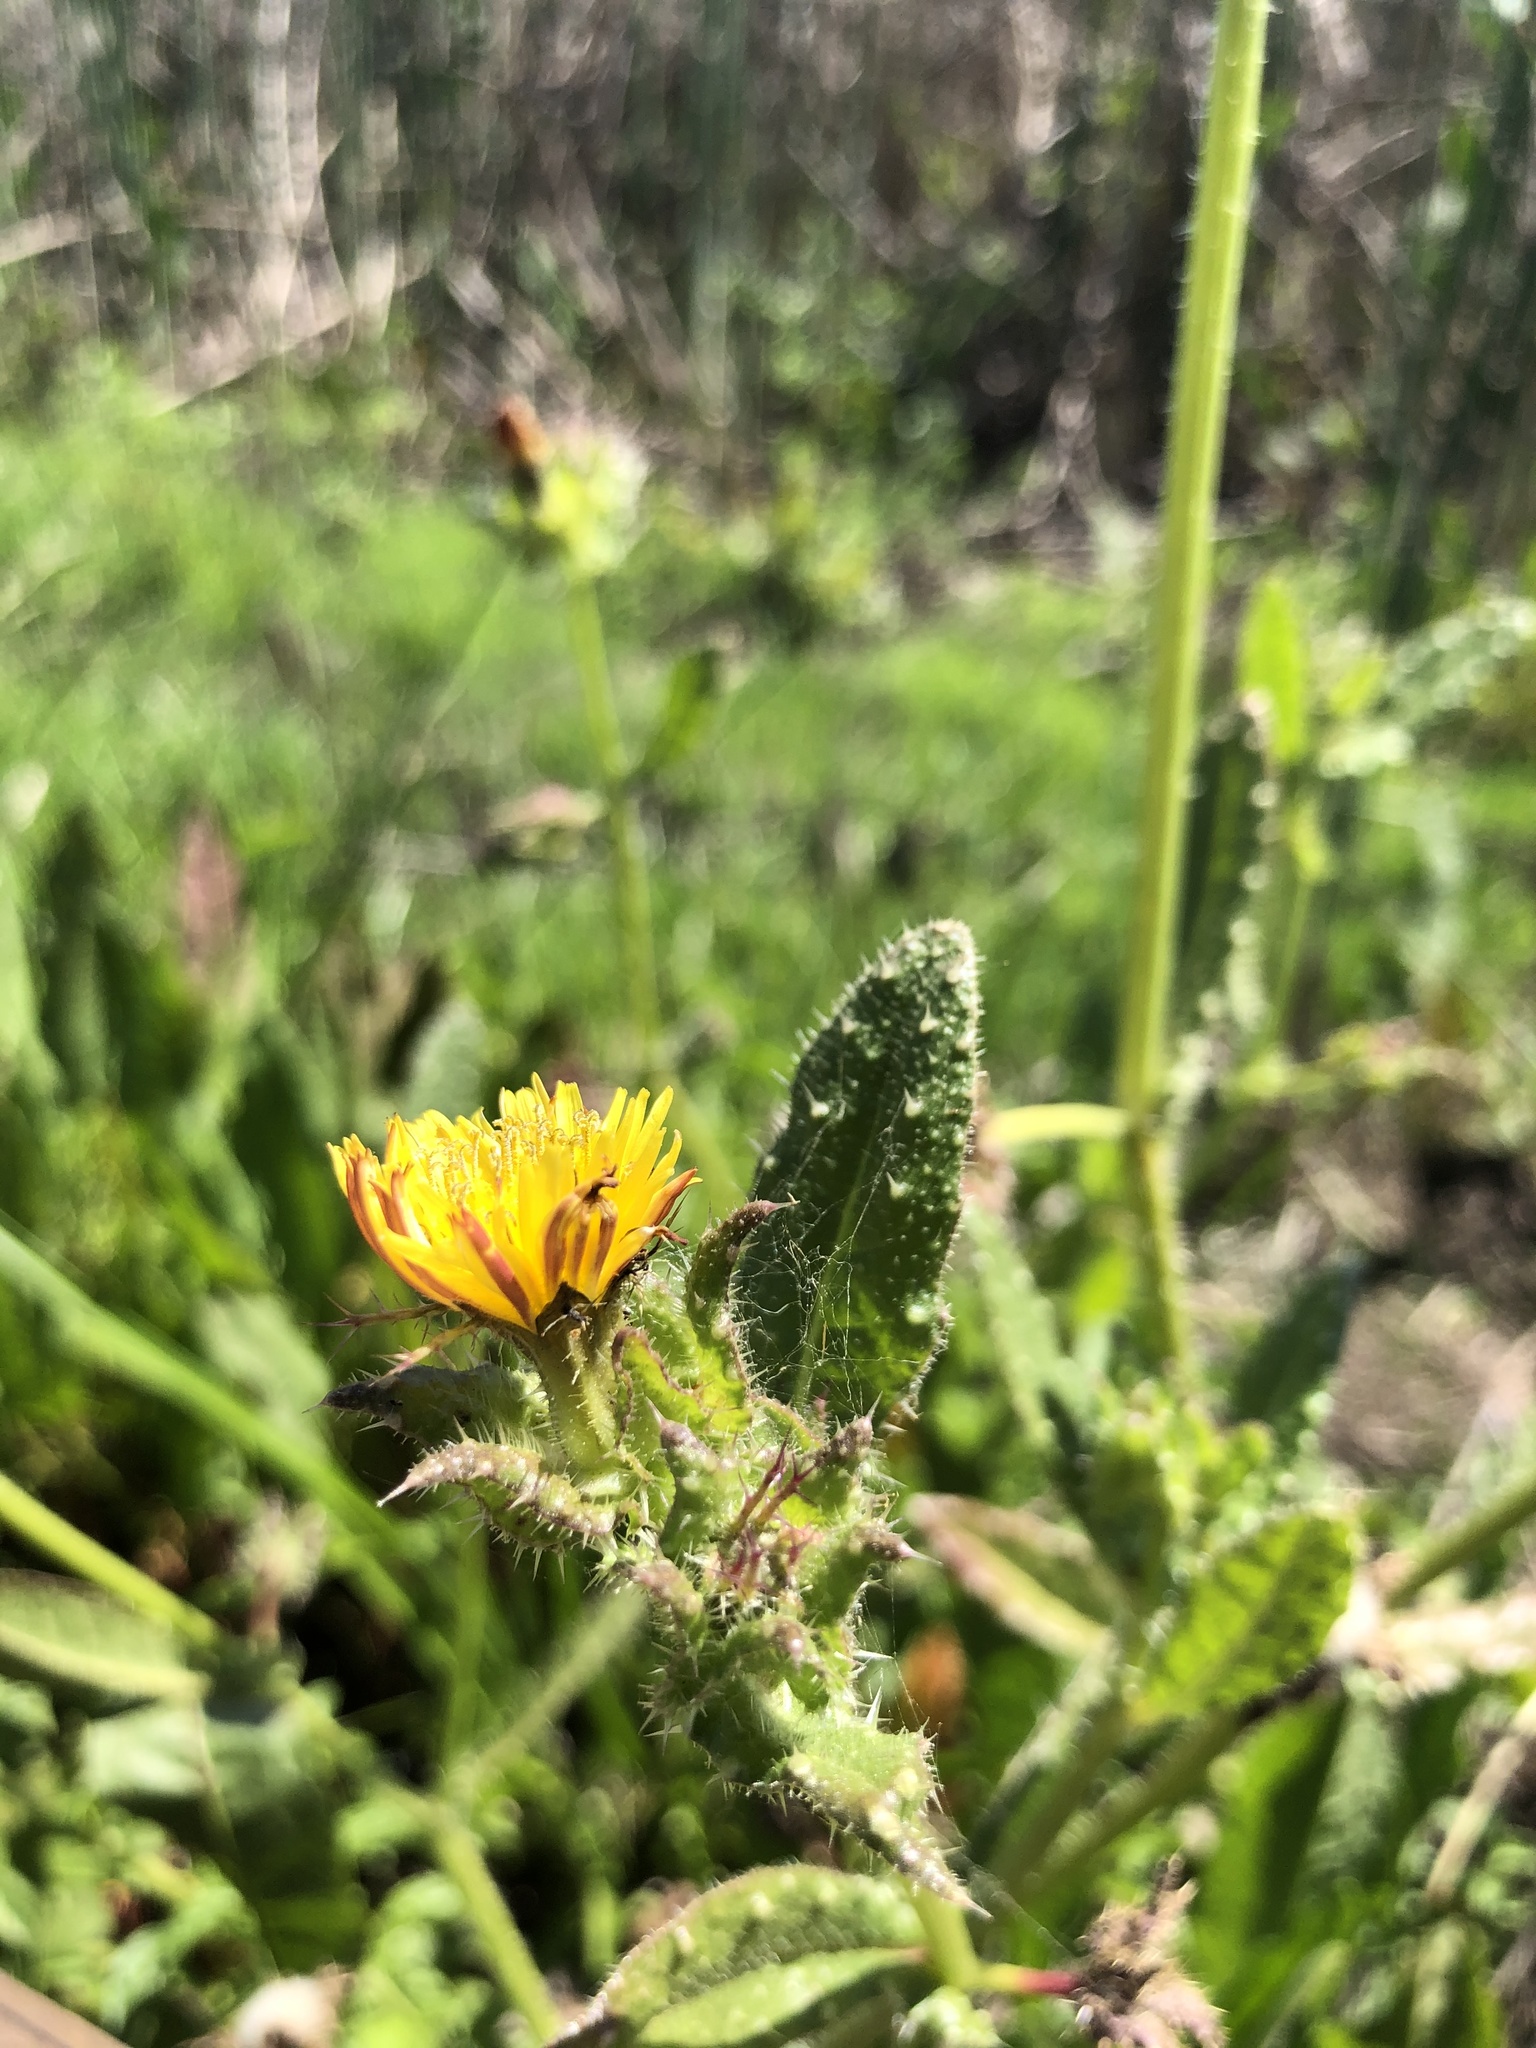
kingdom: Plantae
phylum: Tracheophyta
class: Magnoliopsida
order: Asterales
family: Asteraceae
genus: Helminthotheca
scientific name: Helminthotheca echioides
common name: Ox-tongue
